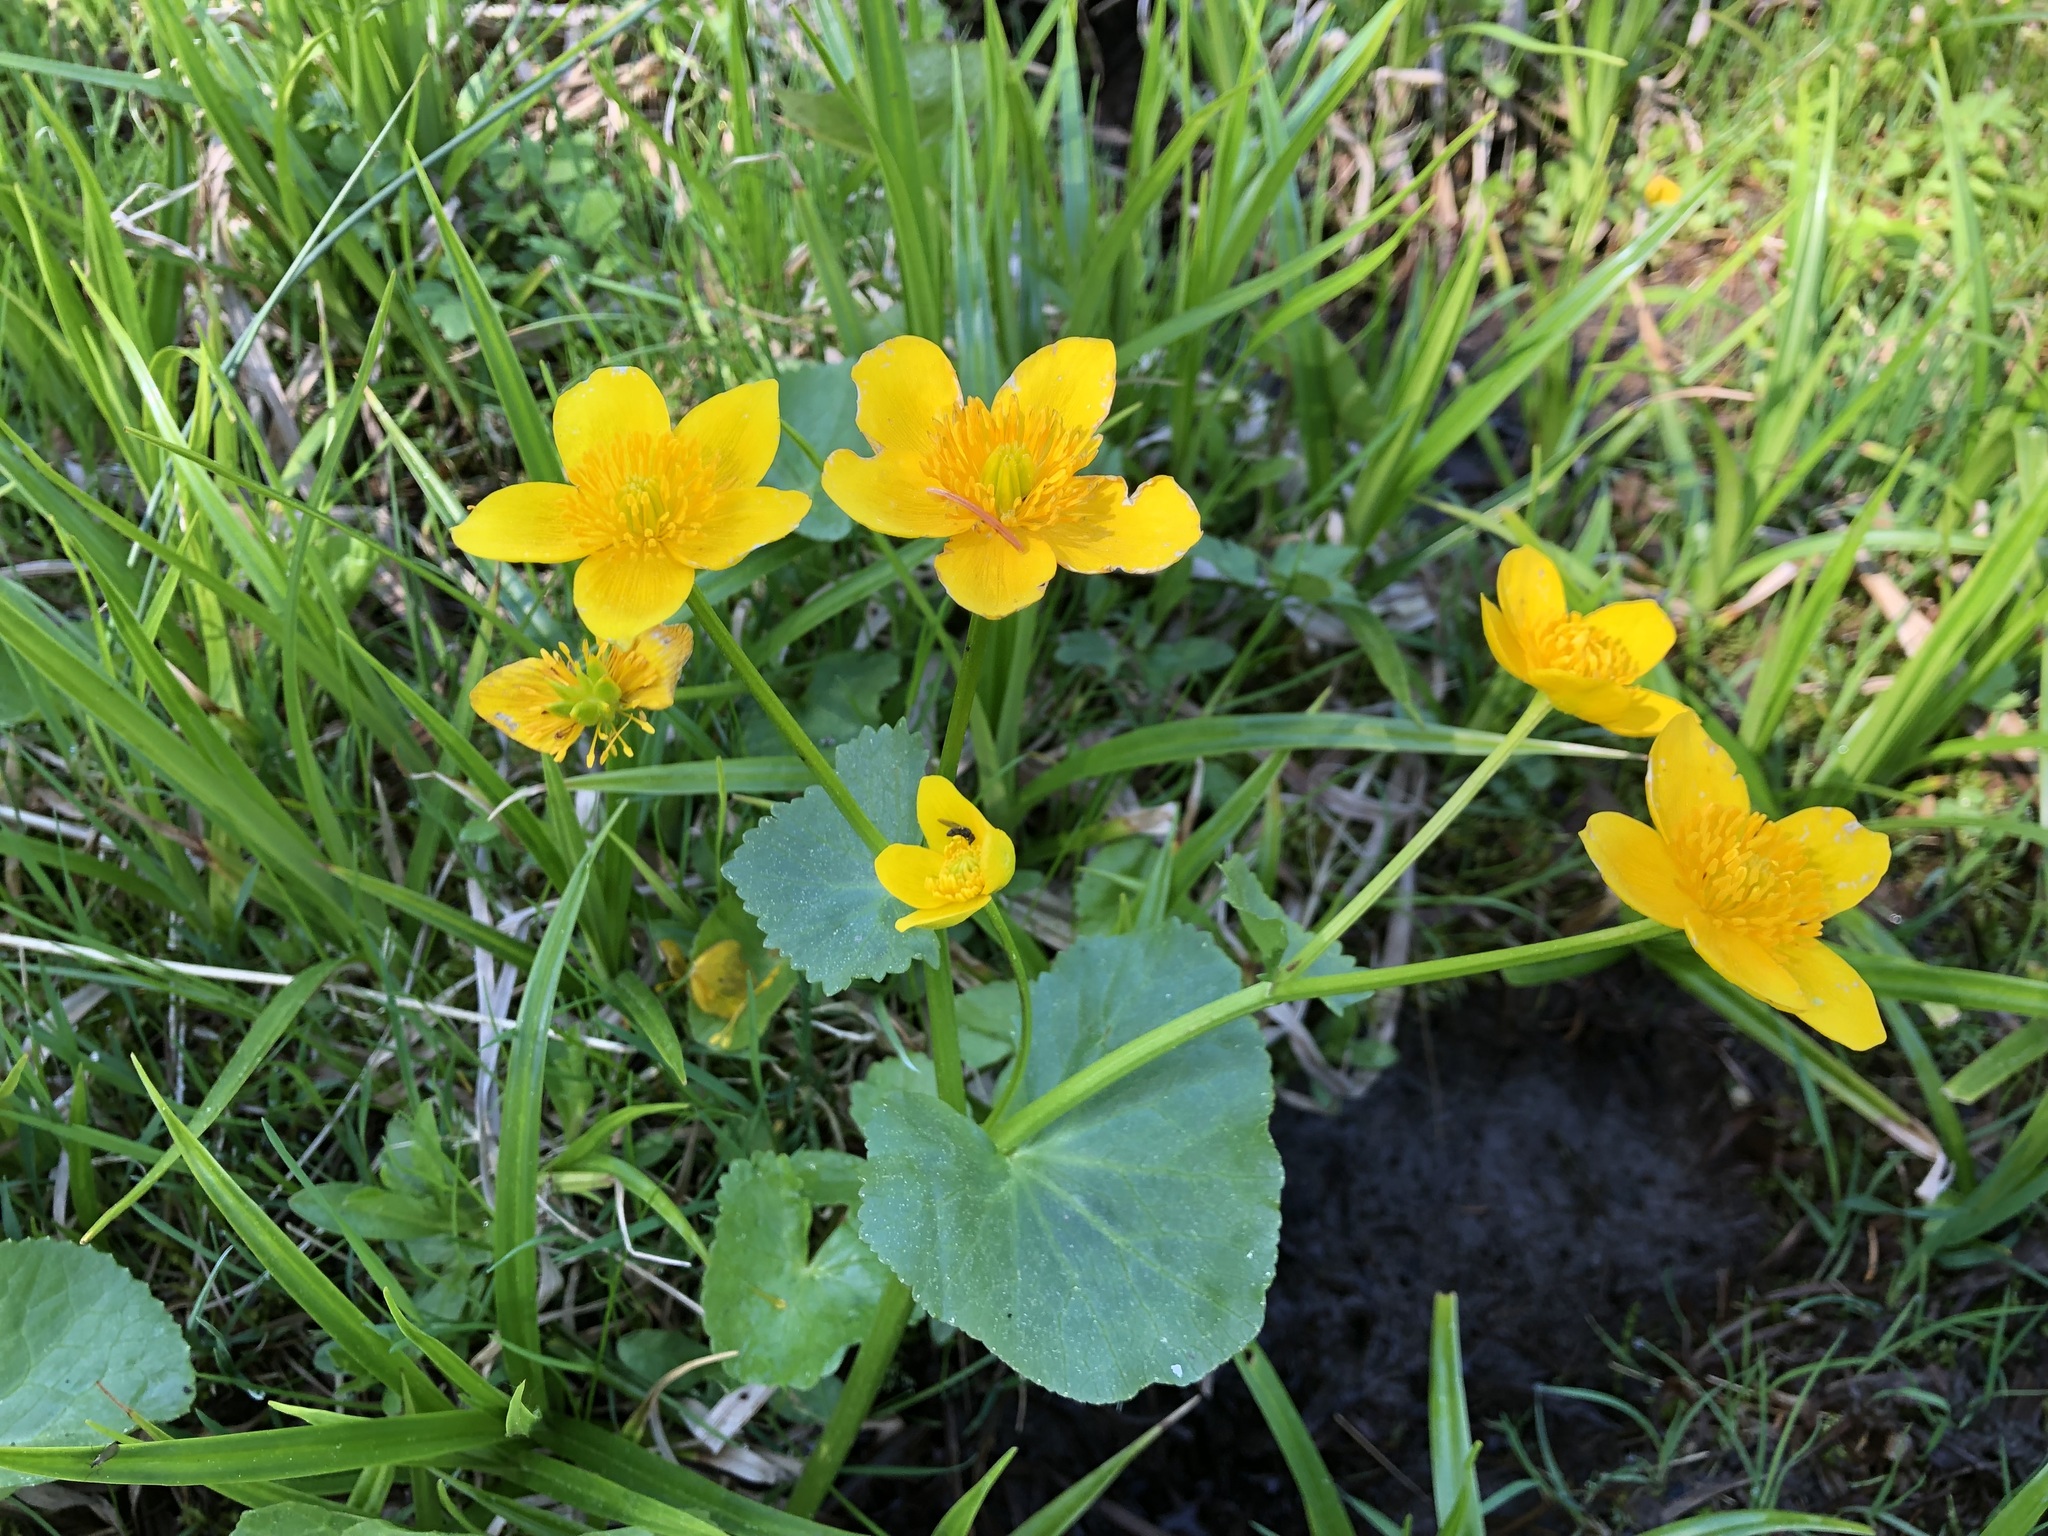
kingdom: Plantae
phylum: Tracheophyta
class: Magnoliopsida
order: Ranunculales
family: Ranunculaceae
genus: Caltha
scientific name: Caltha palustris
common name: Marsh marigold
